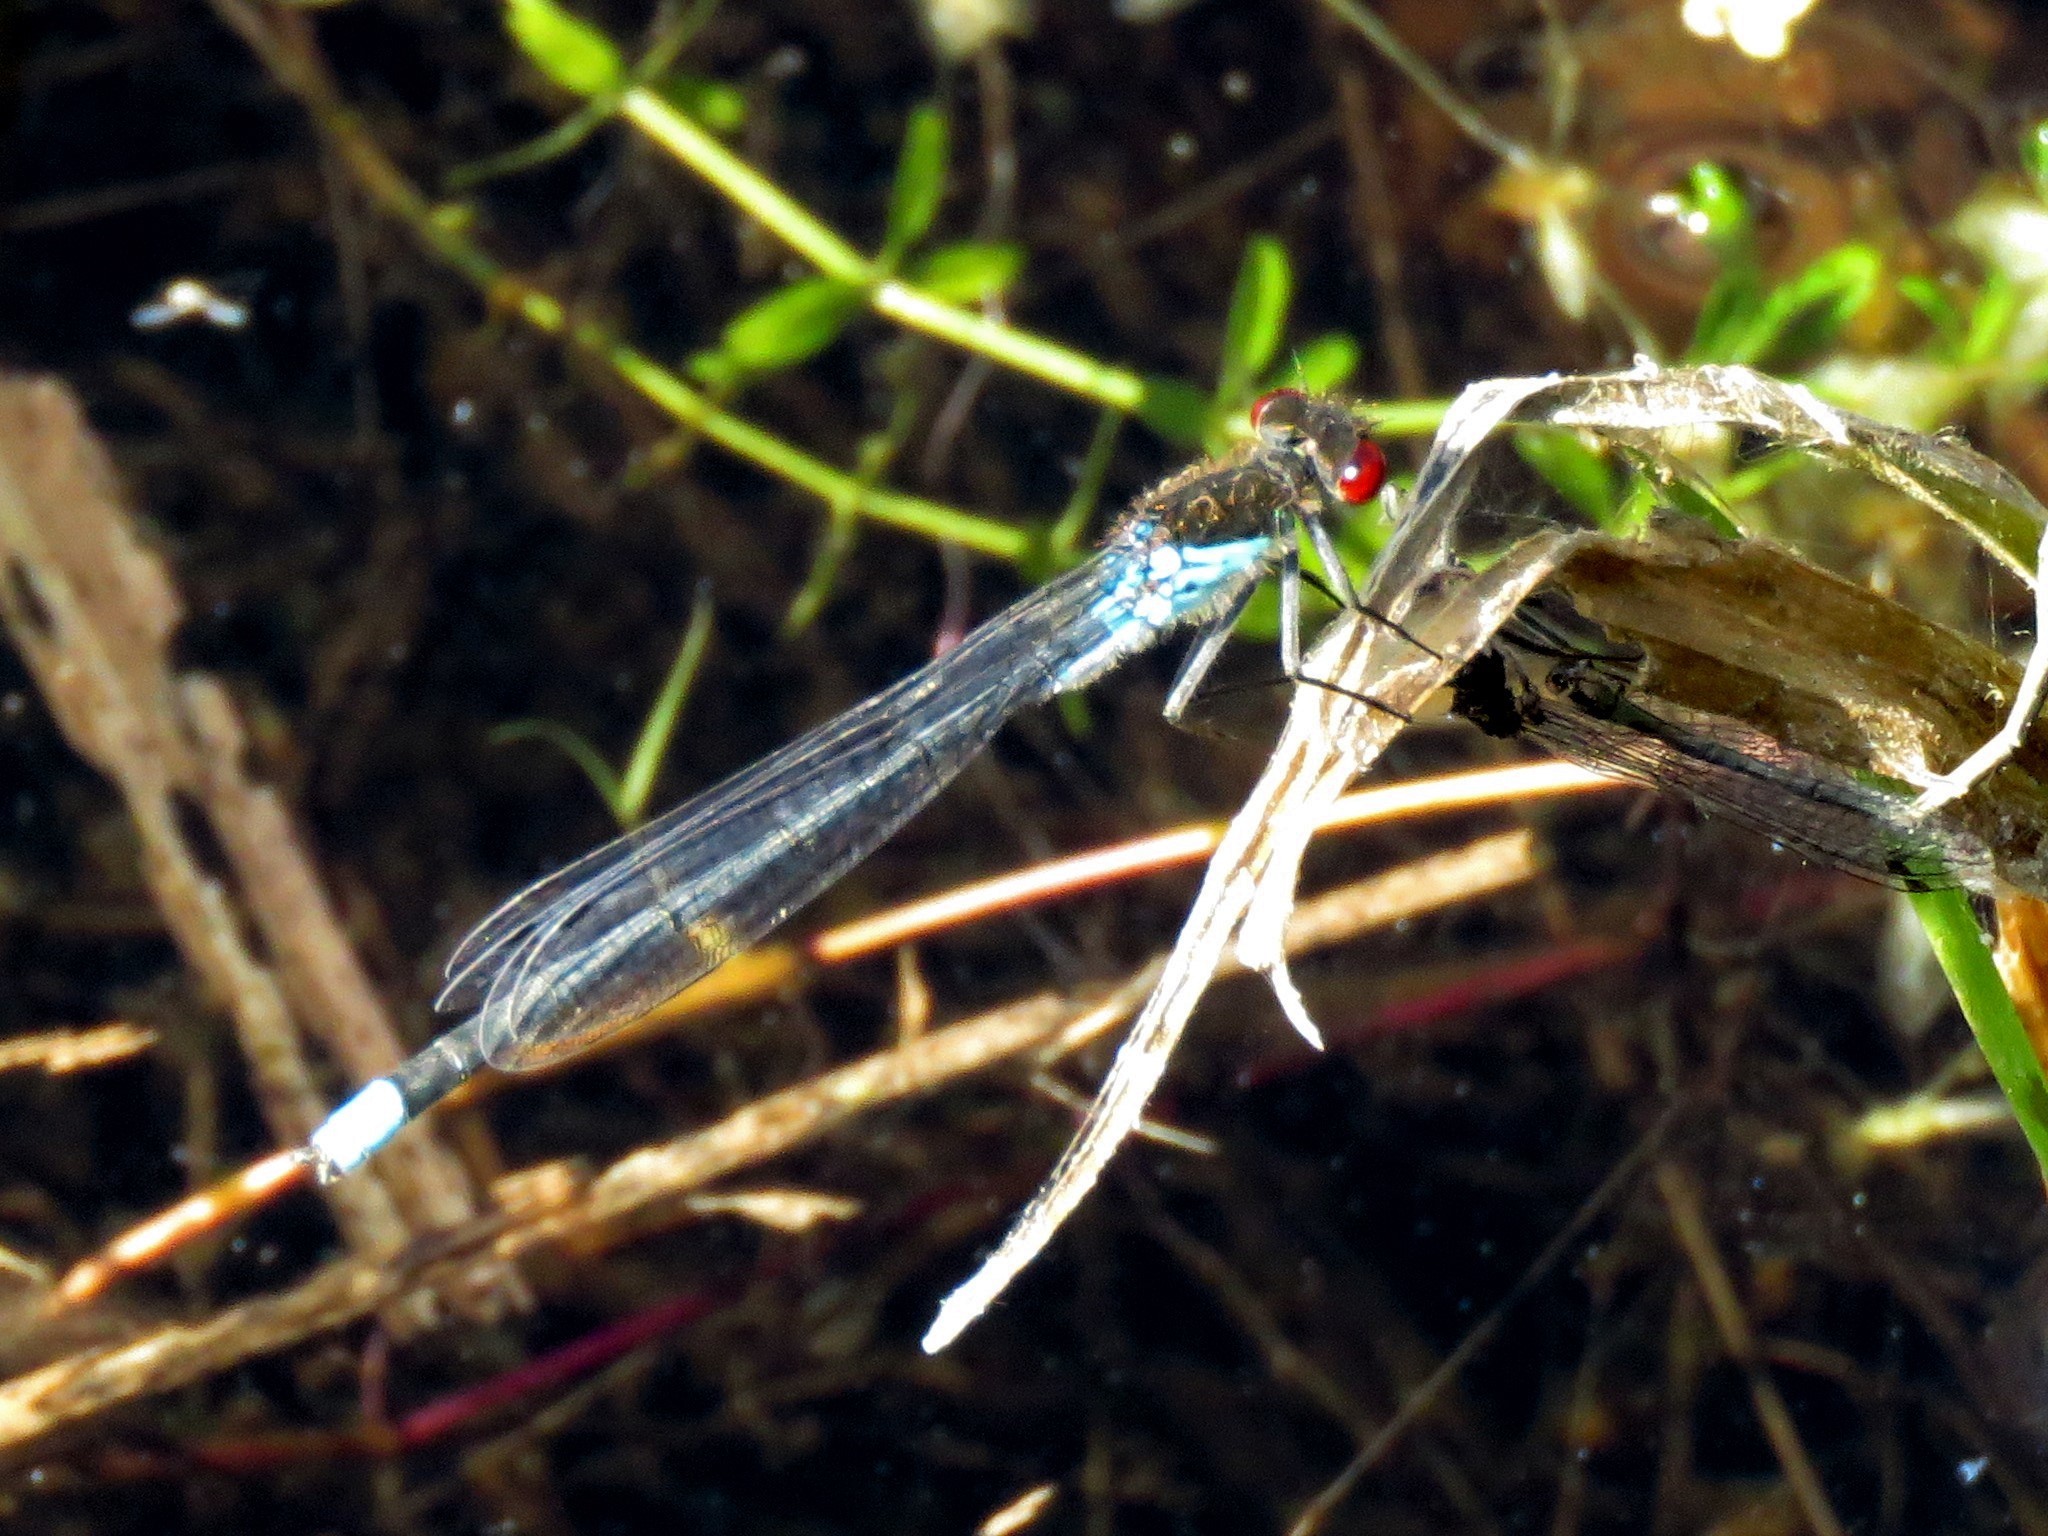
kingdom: Animalia
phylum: Arthropoda
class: Insecta
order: Odonata
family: Coenagrionidae
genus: Erythromma
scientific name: Erythromma najas
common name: Red-eyed damselfly
